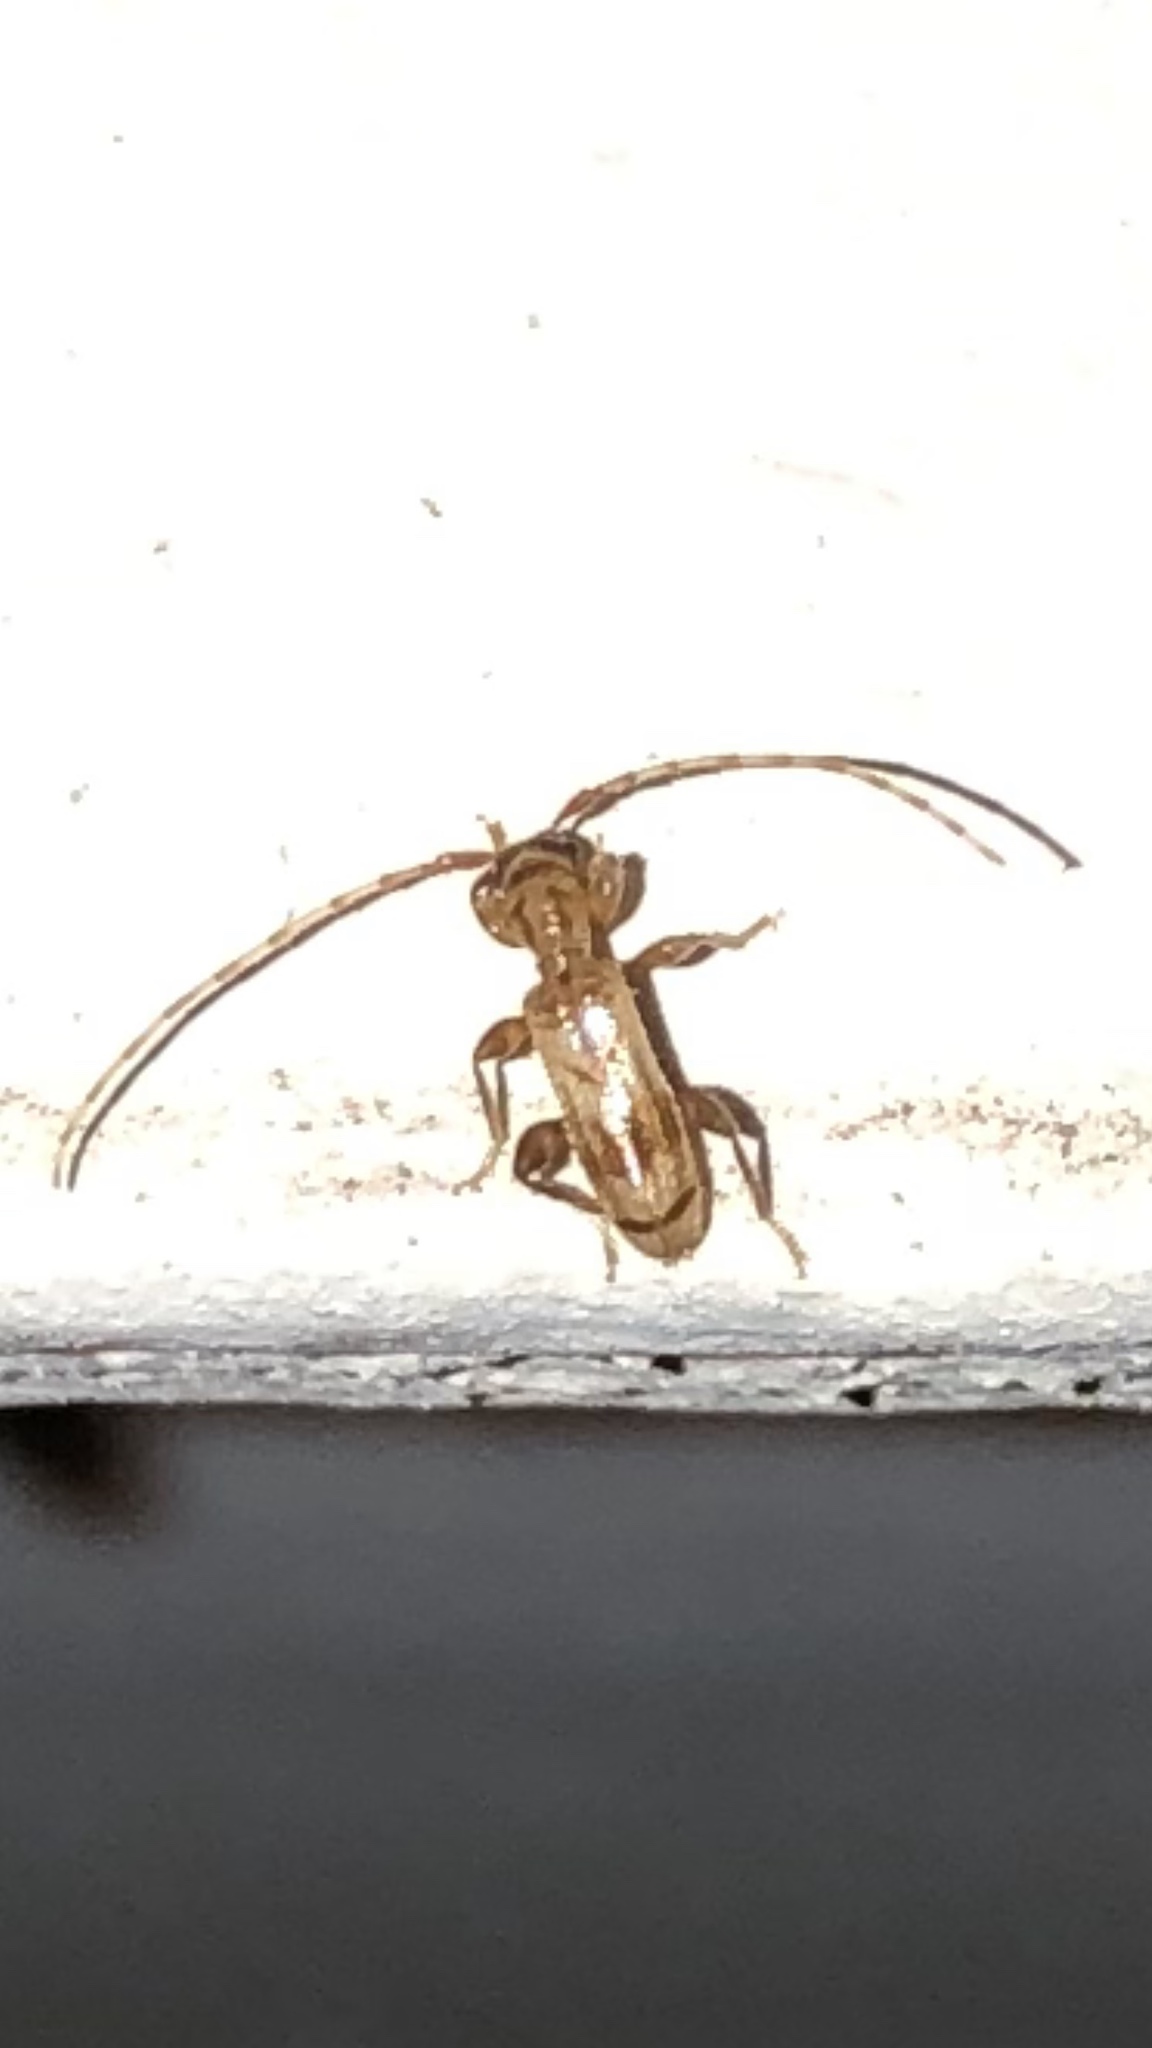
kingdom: Animalia
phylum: Arthropoda
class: Insecta
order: Coleoptera
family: Cerambycidae
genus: Obrium
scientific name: Obrium maculatum
